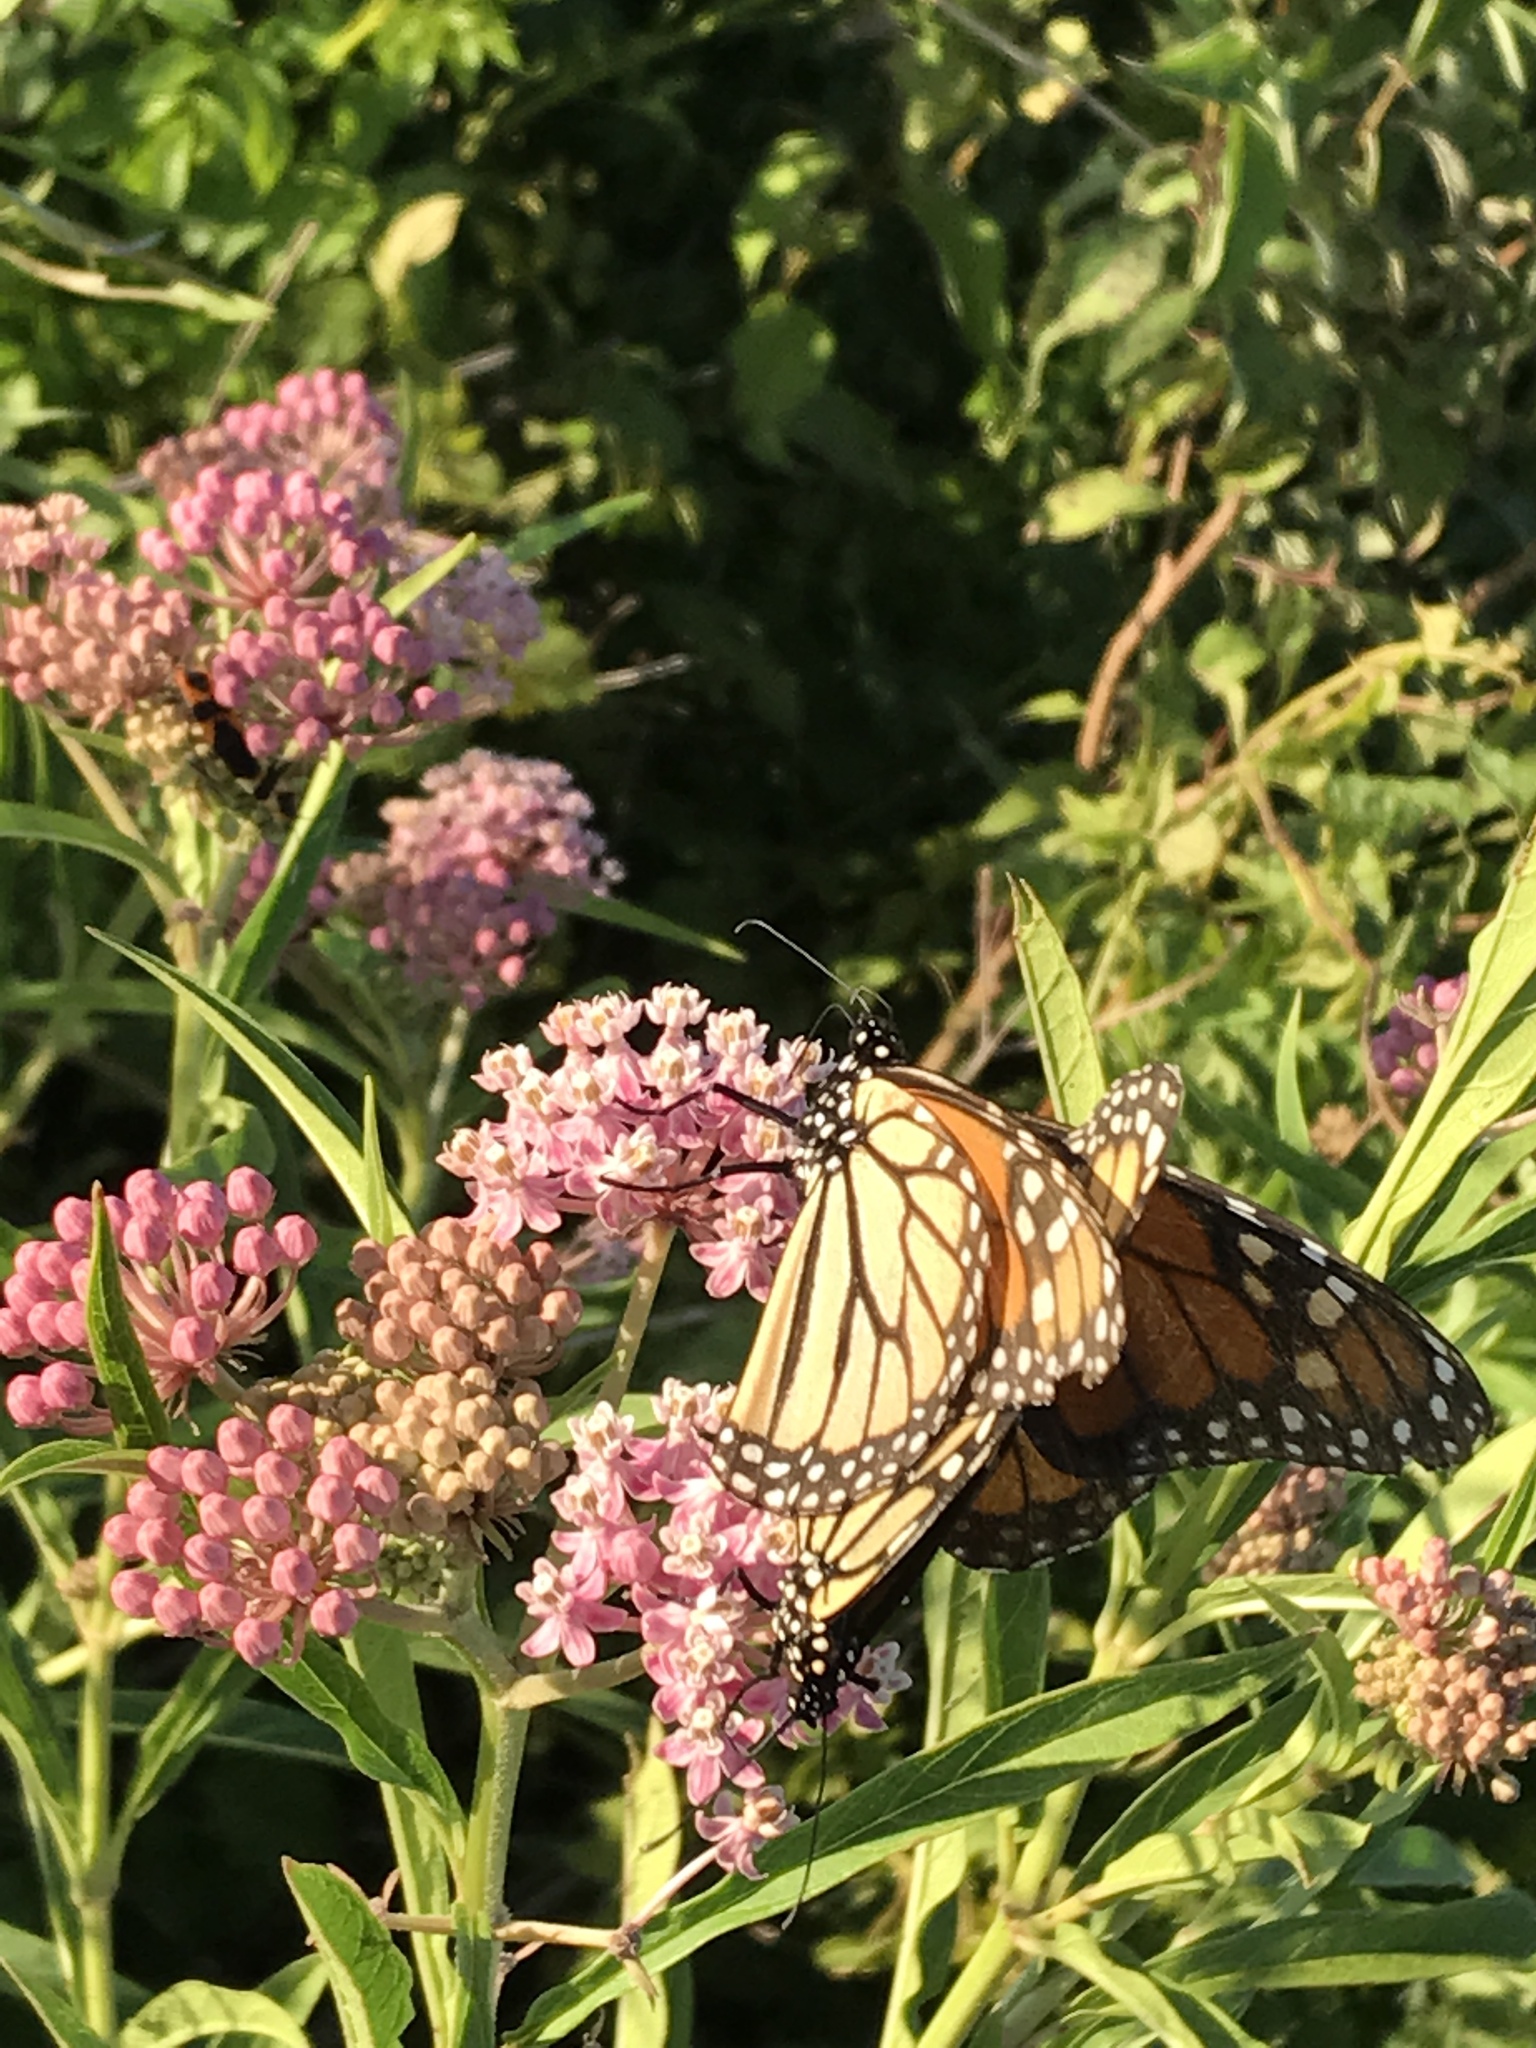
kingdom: Animalia
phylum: Arthropoda
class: Insecta
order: Lepidoptera
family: Nymphalidae
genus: Danaus
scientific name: Danaus plexippus
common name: Monarch
